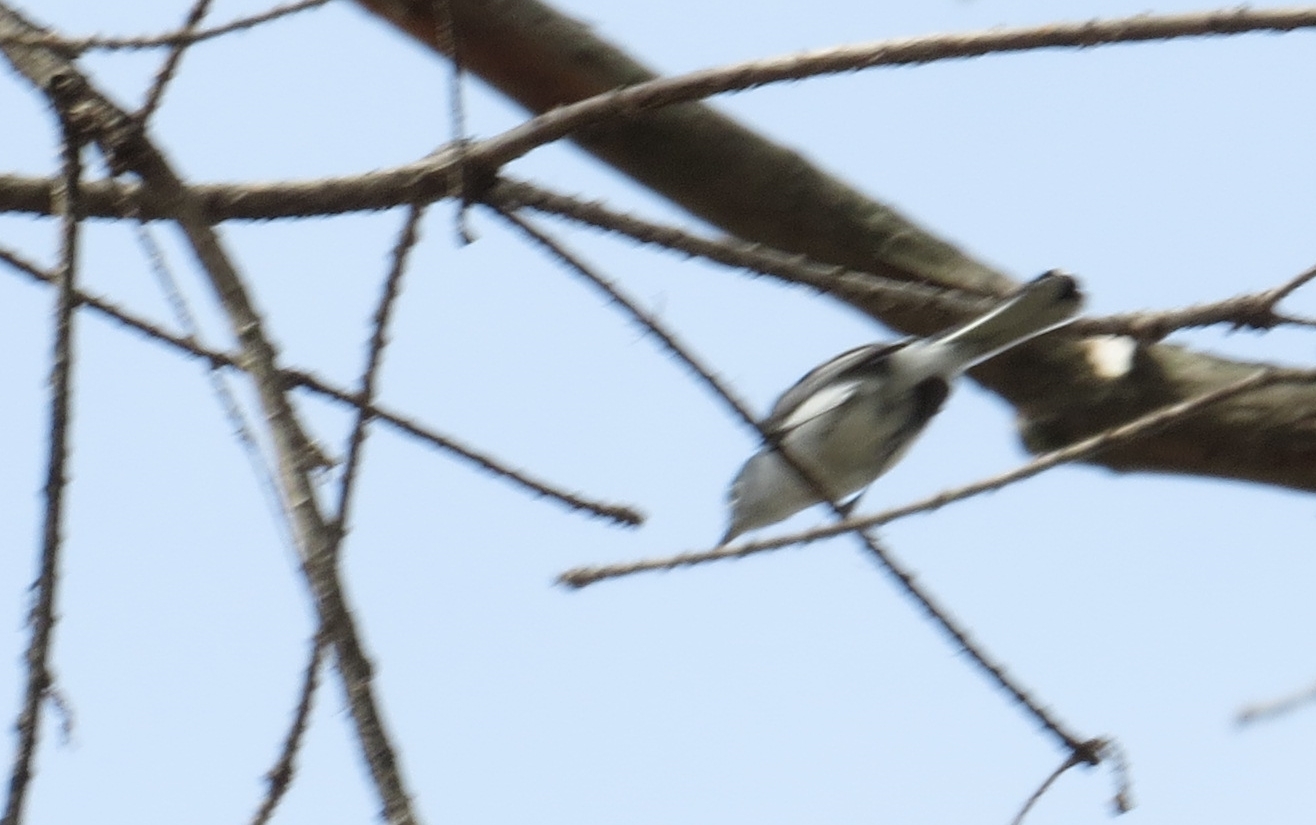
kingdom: Animalia
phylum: Chordata
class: Aves
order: Passeriformes
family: Polioptilidae
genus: Polioptila
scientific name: Polioptila caerulea
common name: Blue-gray gnatcatcher
